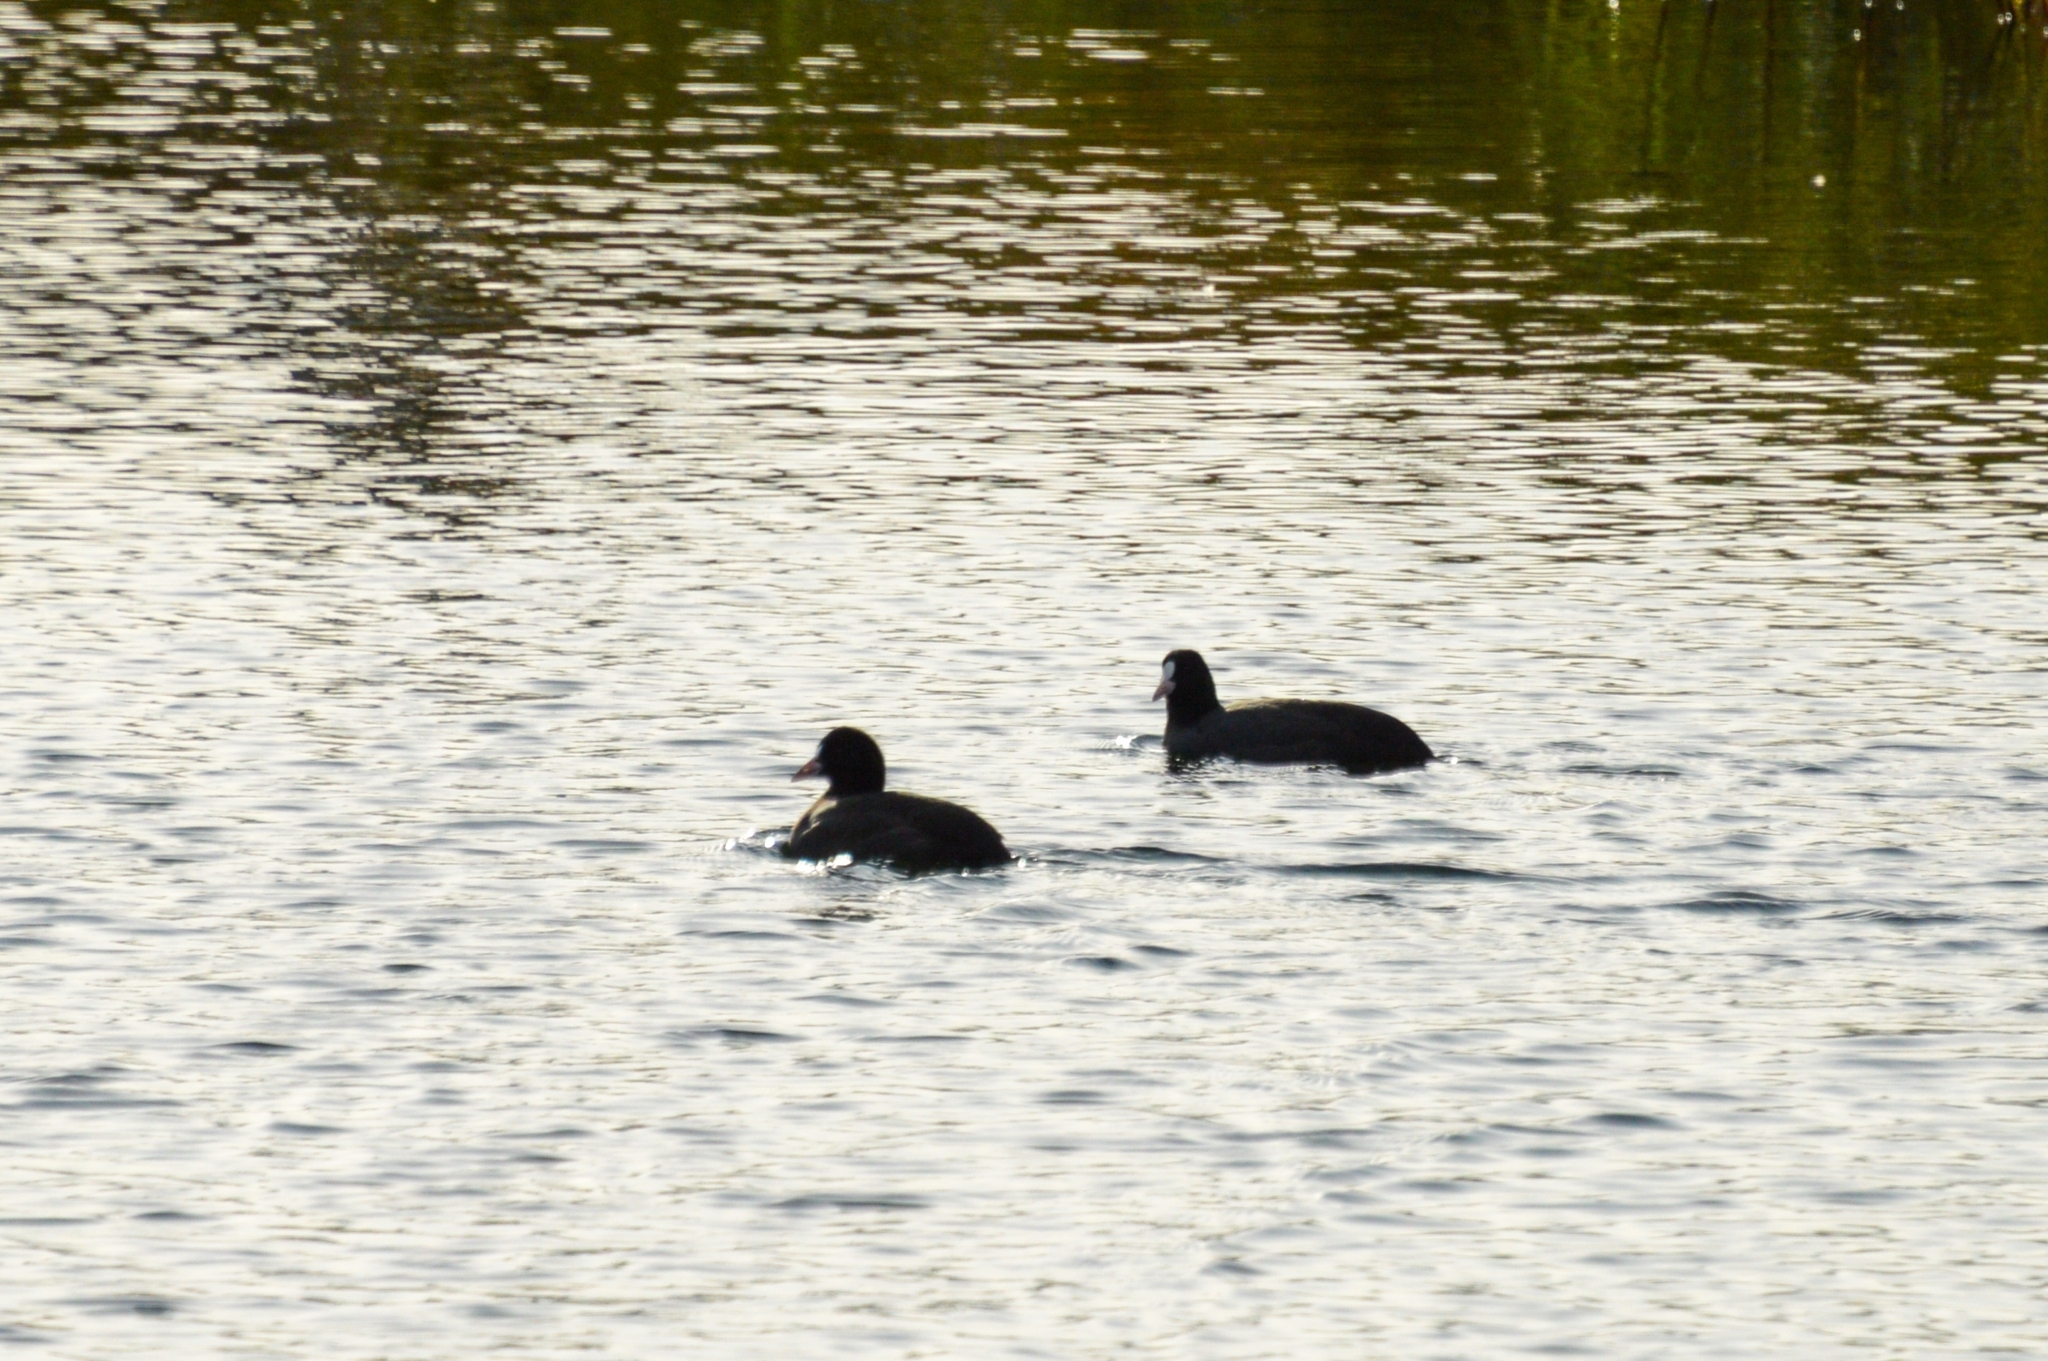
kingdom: Animalia
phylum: Chordata
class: Aves
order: Gruiformes
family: Rallidae
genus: Fulica
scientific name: Fulica atra
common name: Eurasian coot
